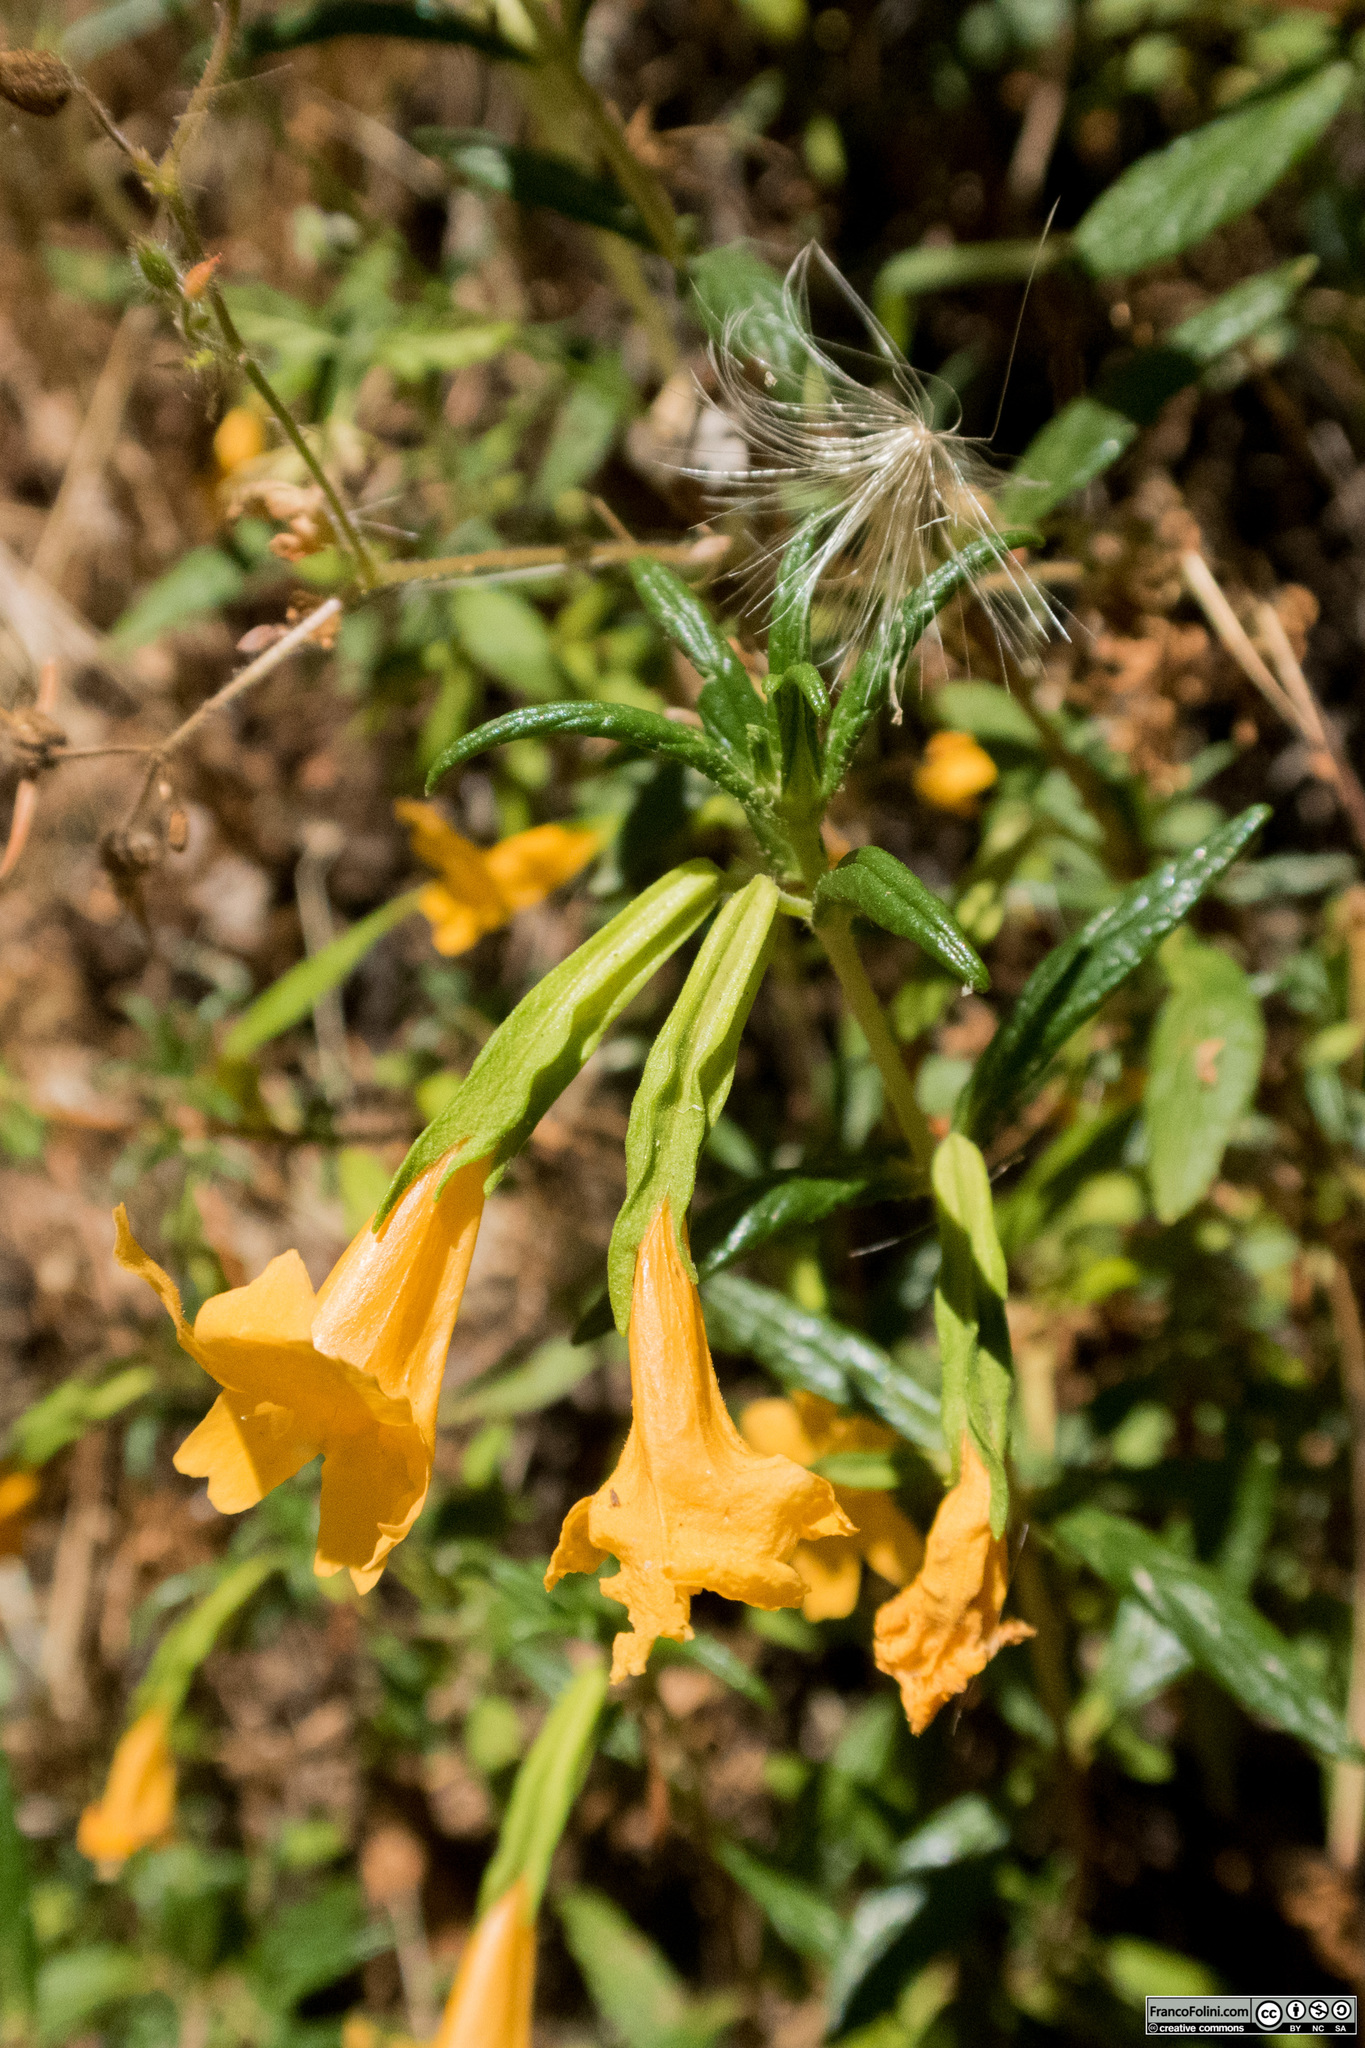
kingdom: Plantae
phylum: Tracheophyta
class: Magnoliopsida
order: Lamiales
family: Phrymaceae
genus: Diplacus
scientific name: Diplacus aurantiacus
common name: Bush monkey-flower
